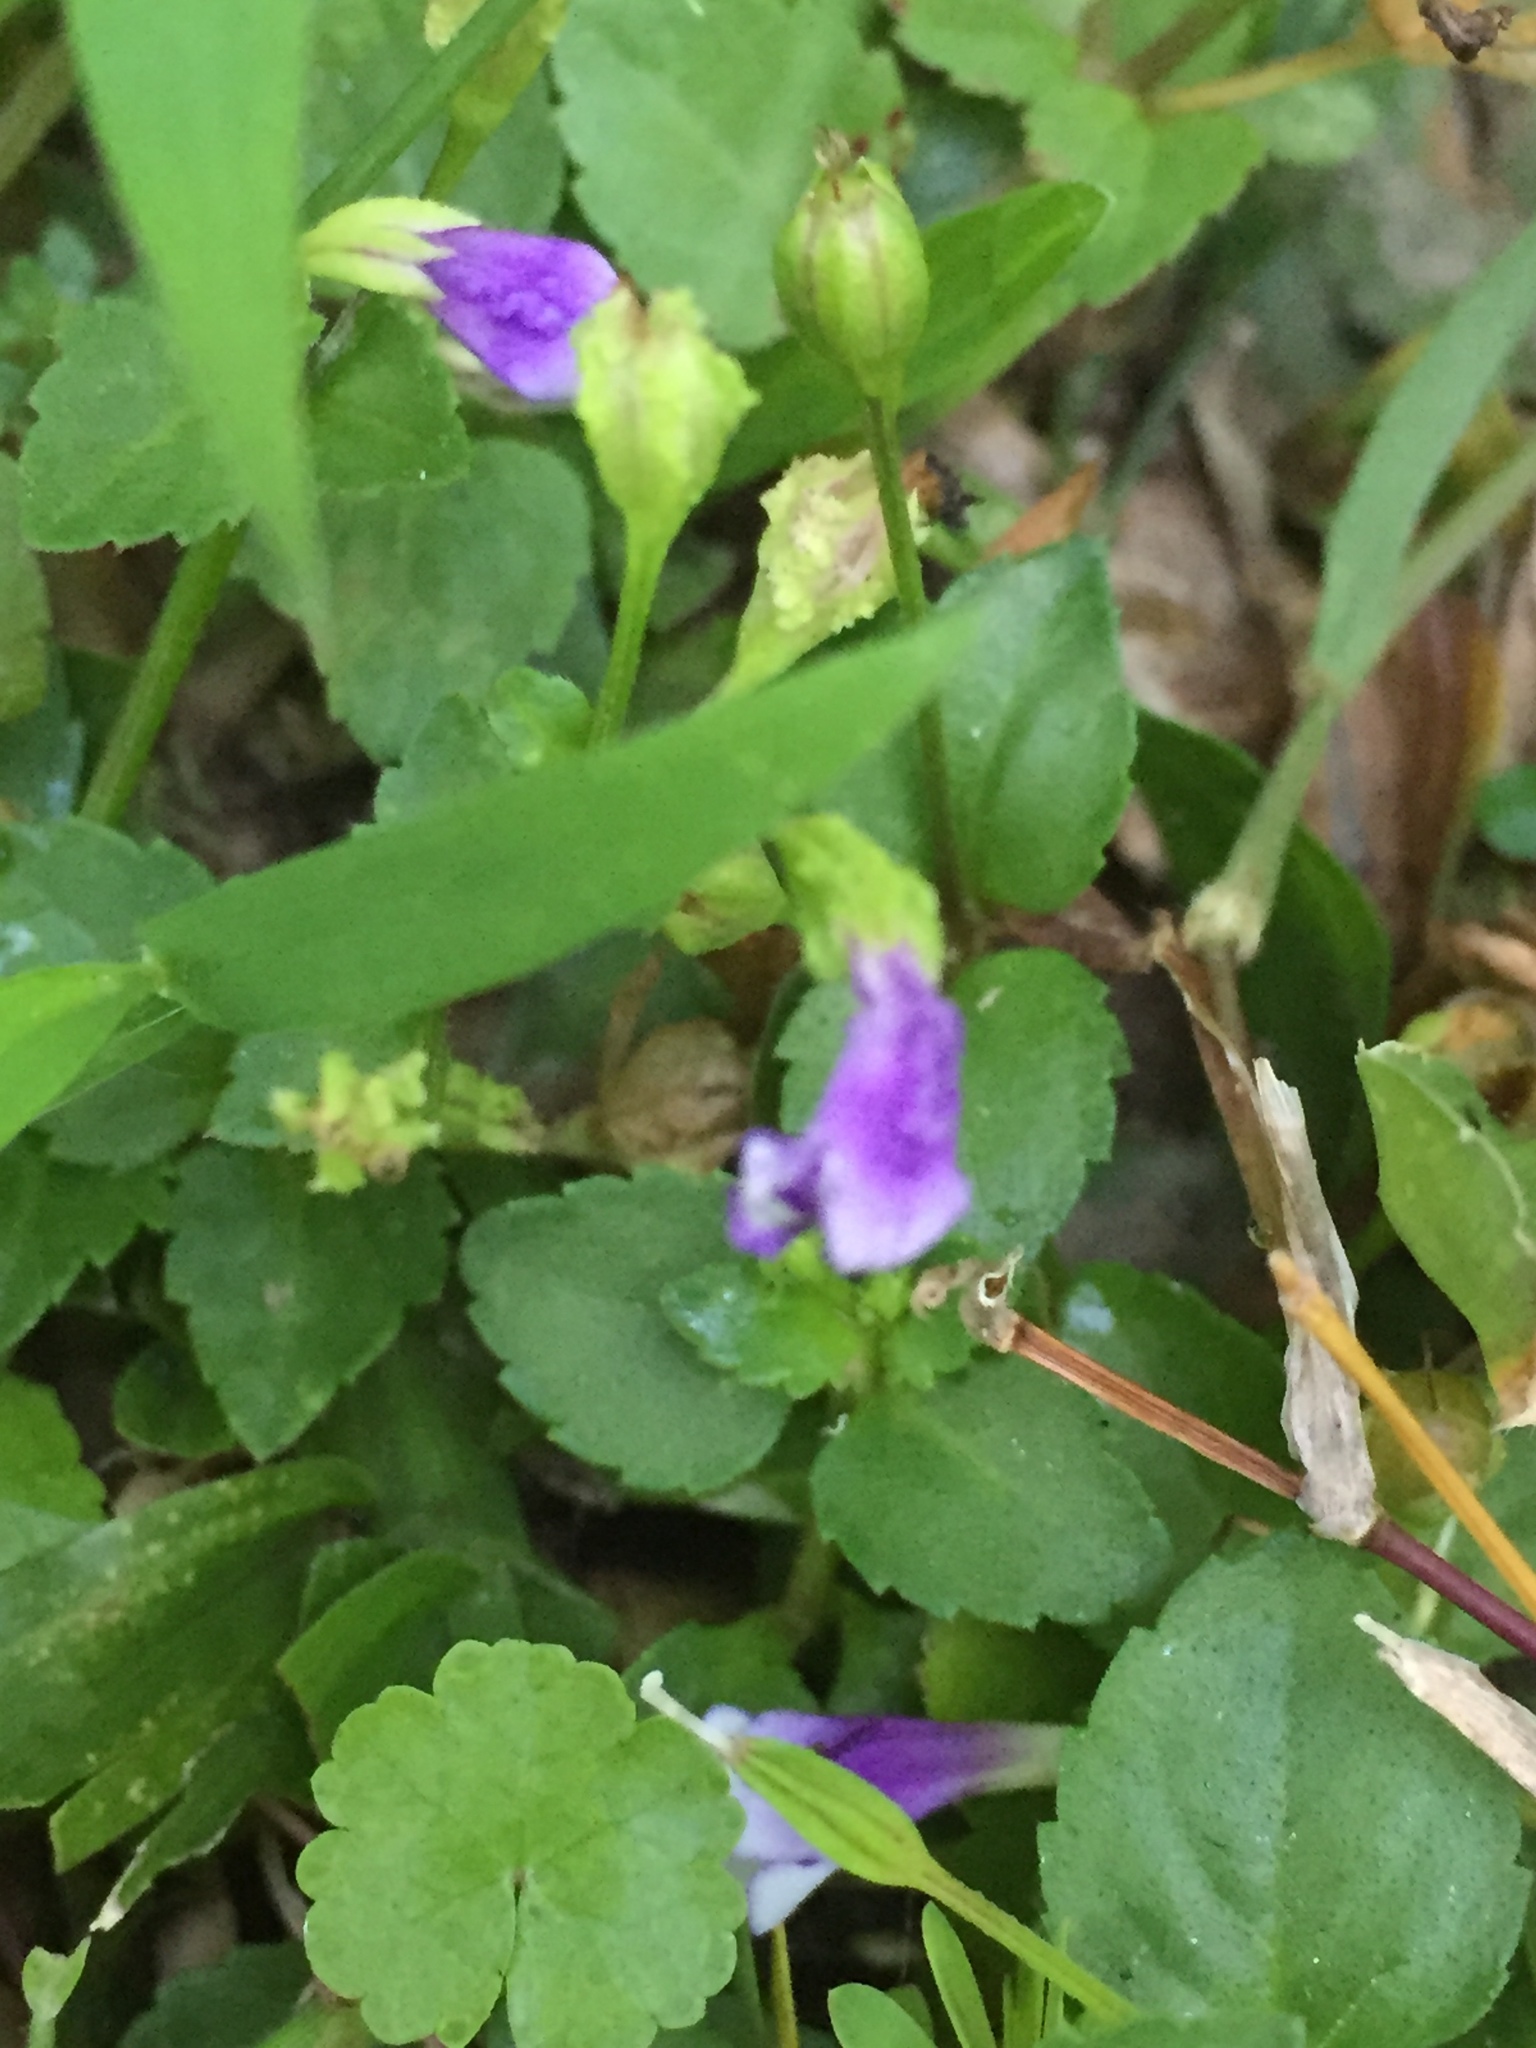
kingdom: Plantae
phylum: Tracheophyta
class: Magnoliopsida
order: Lamiales
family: Linderniaceae
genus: Torenia
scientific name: Torenia crustacea
